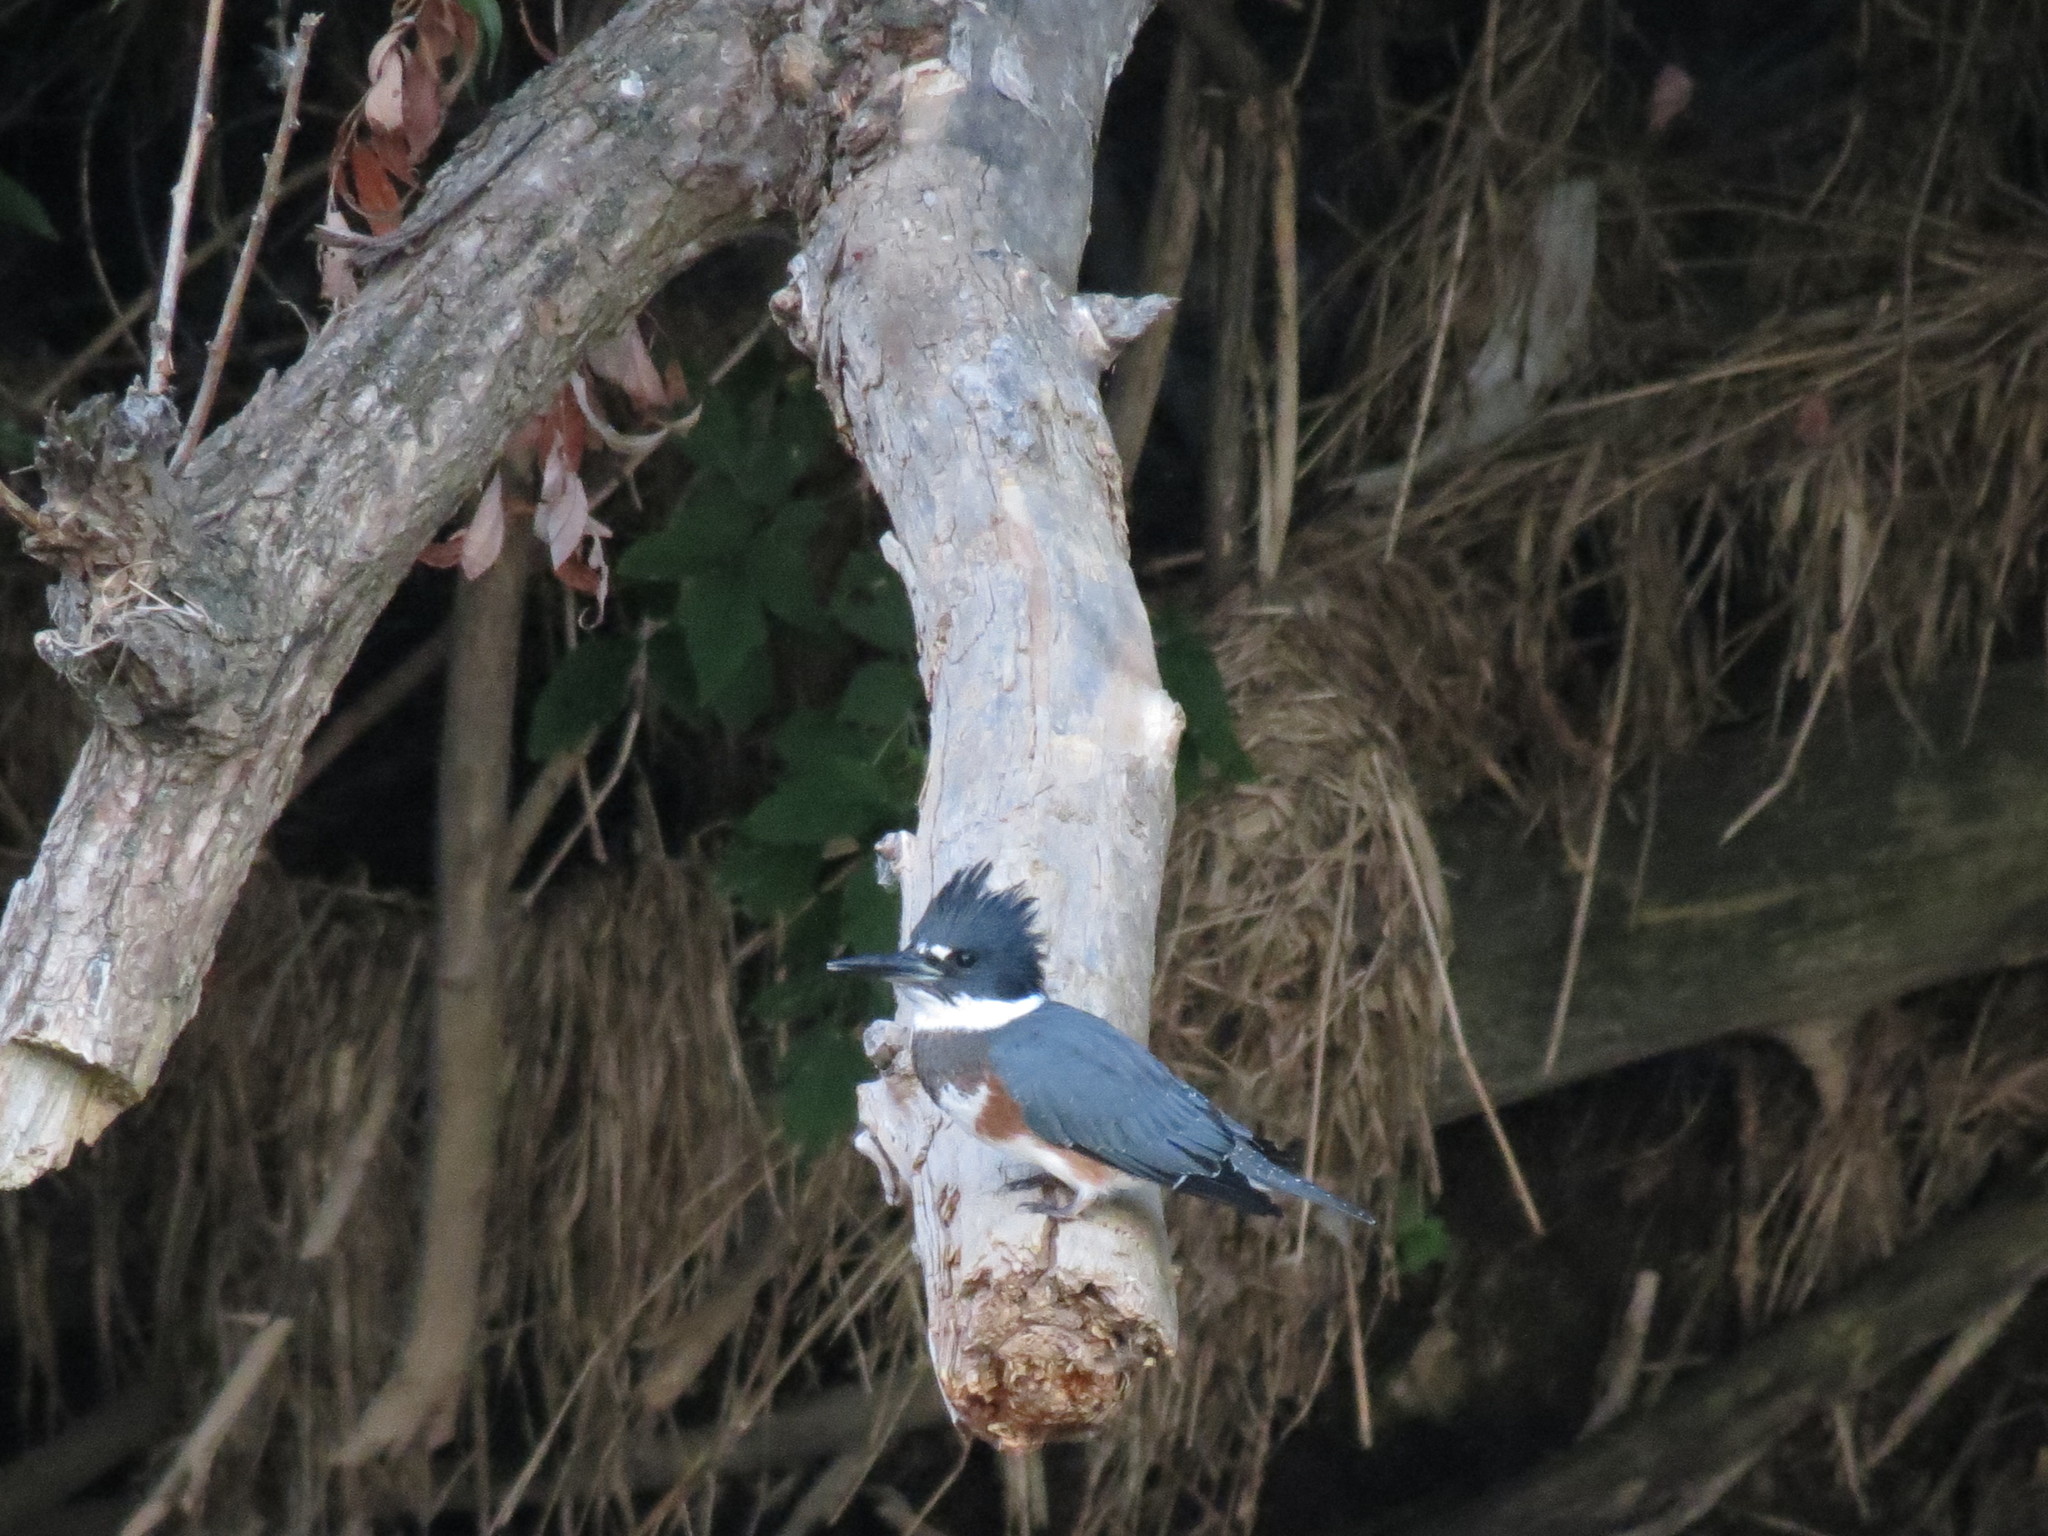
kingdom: Animalia
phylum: Chordata
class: Aves
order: Coraciiformes
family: Alcedinidae
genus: Megaceryle
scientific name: Megaceryle alcyon
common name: Belted kingfisher
